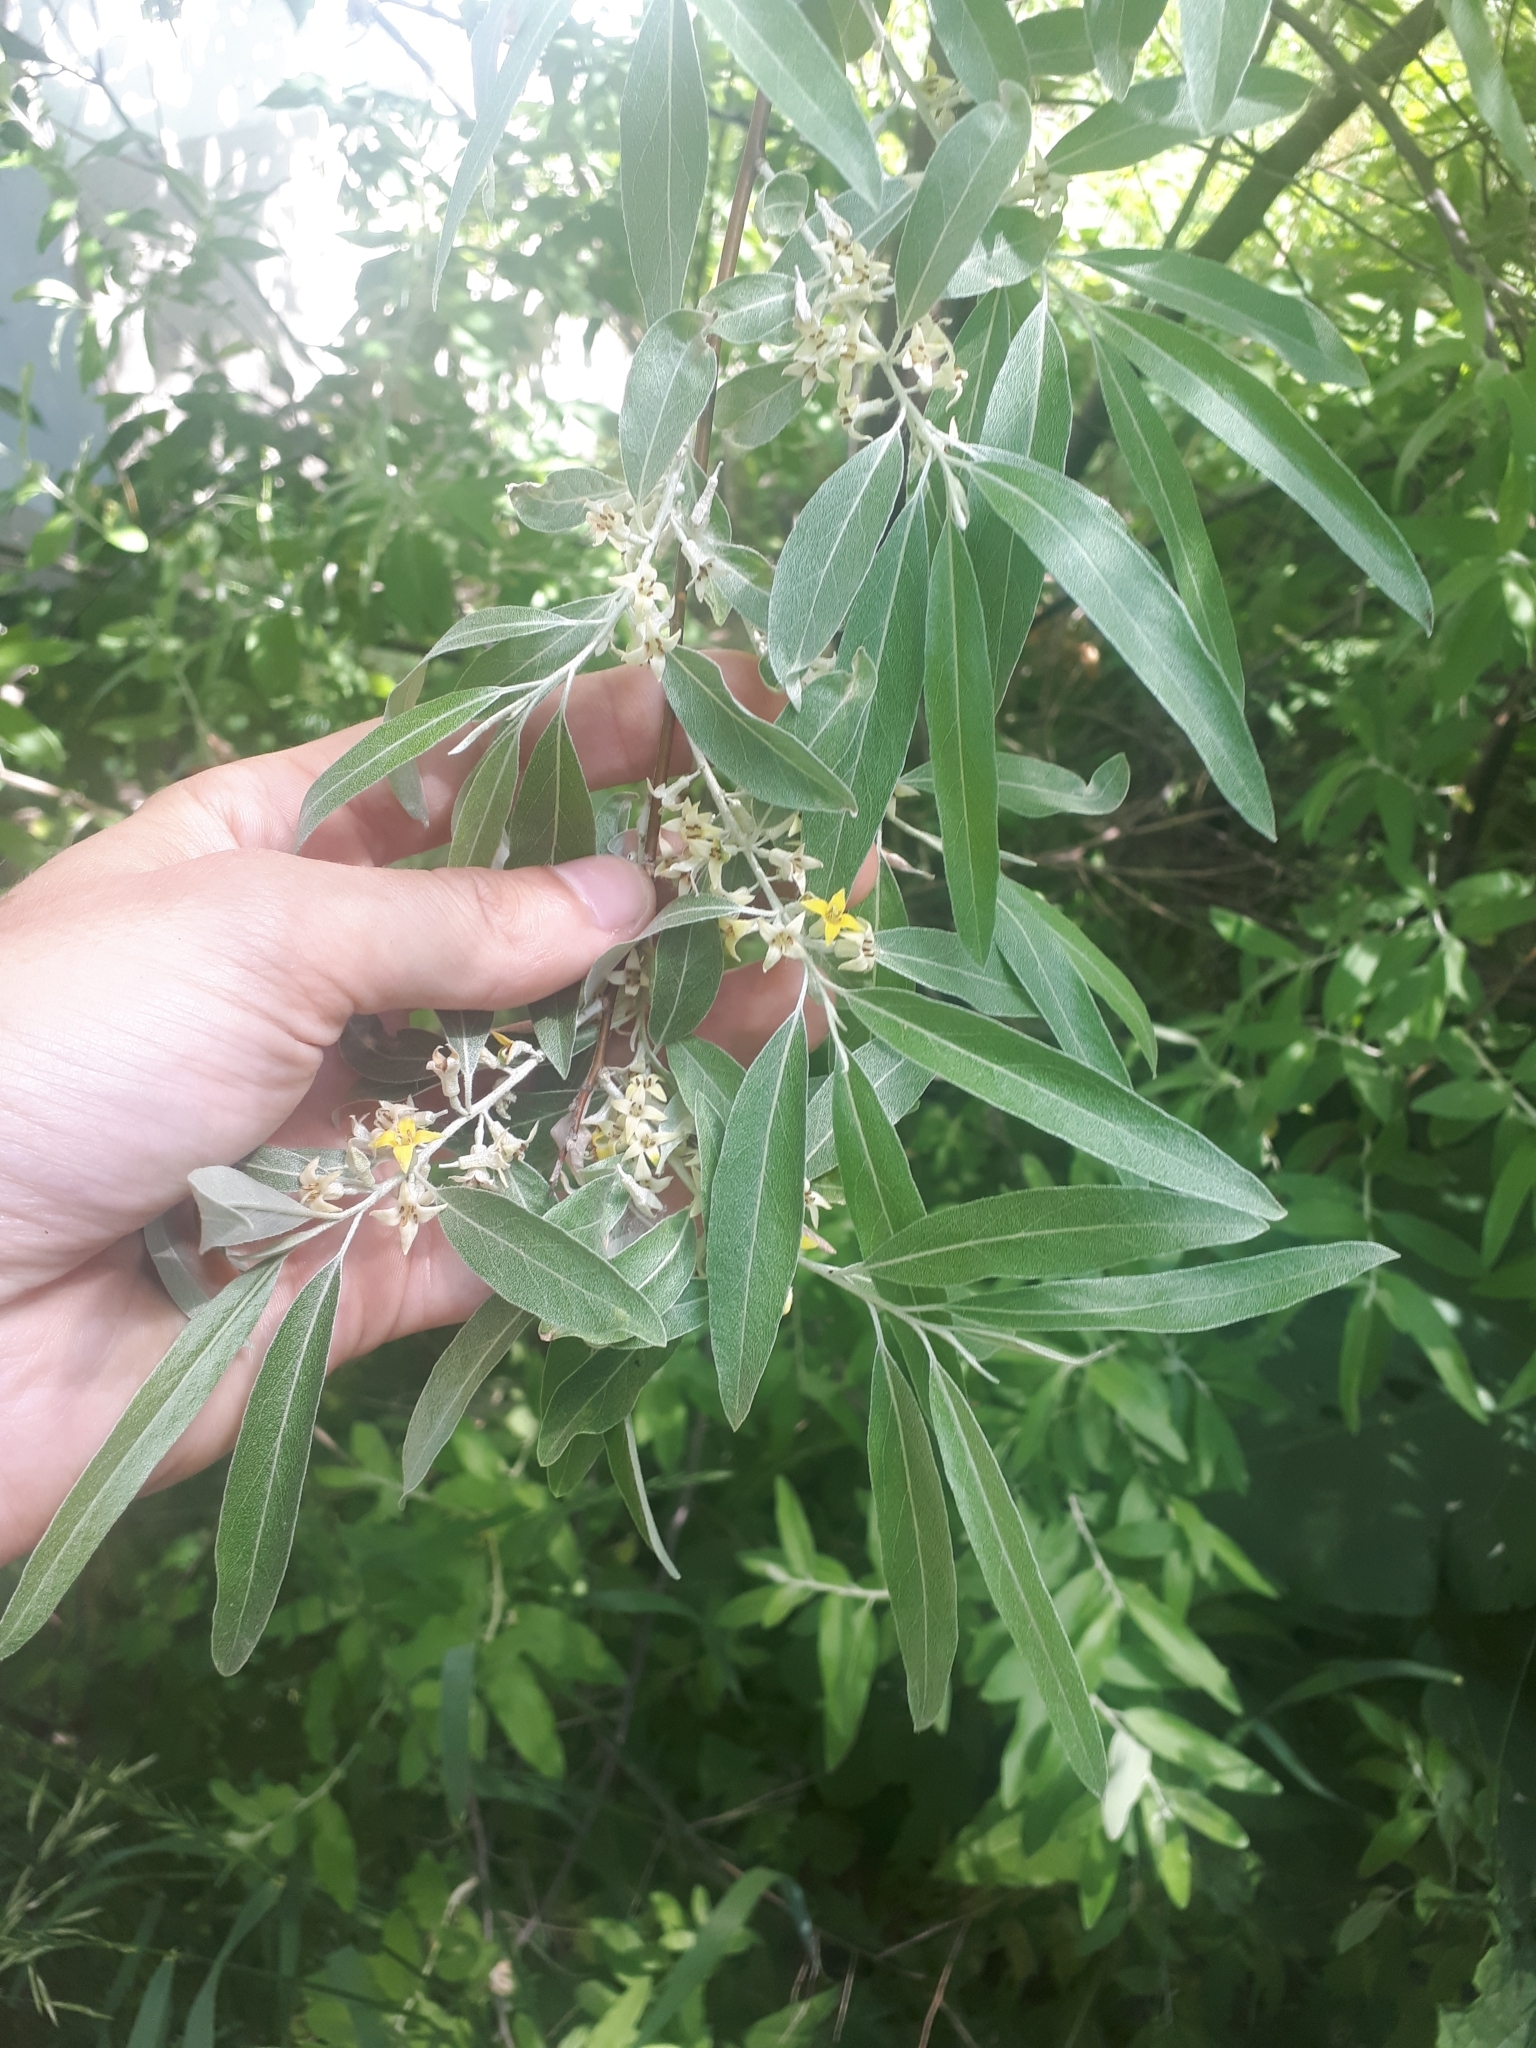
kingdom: Plantae
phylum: Tracheophyta
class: Magnoliopsida
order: Rosales
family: Elaeagnaceae
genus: Elaeagnus
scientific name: Elaeagnus angustifolia
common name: Russian olive
